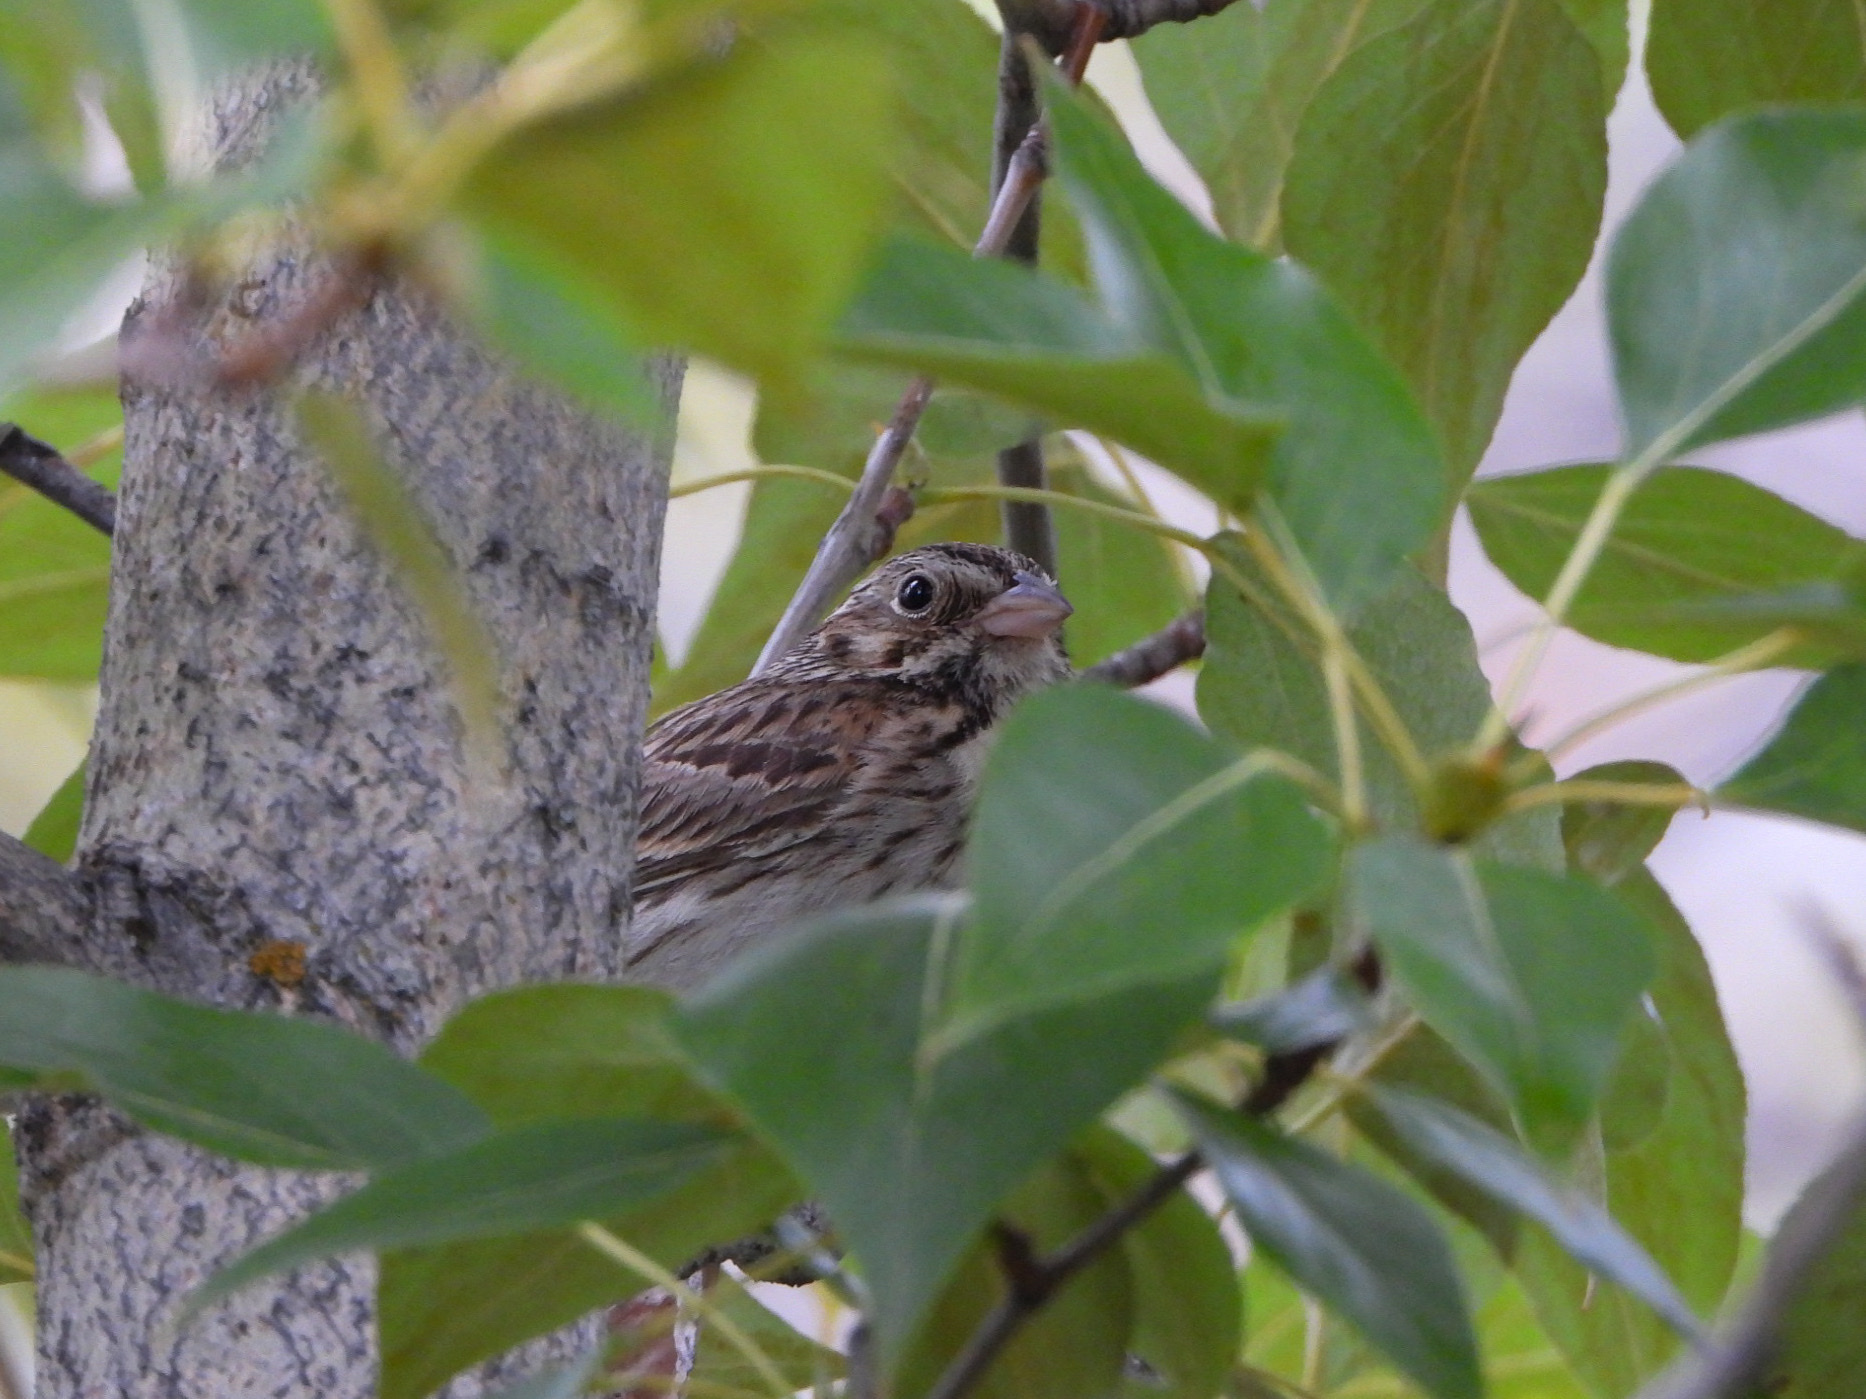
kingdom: Animalia
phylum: Chordata
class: Aves
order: Passeriformes
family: Passerellidae
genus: Pooecetes
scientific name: Pooecetes gramineus
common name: Vesper sparrow
